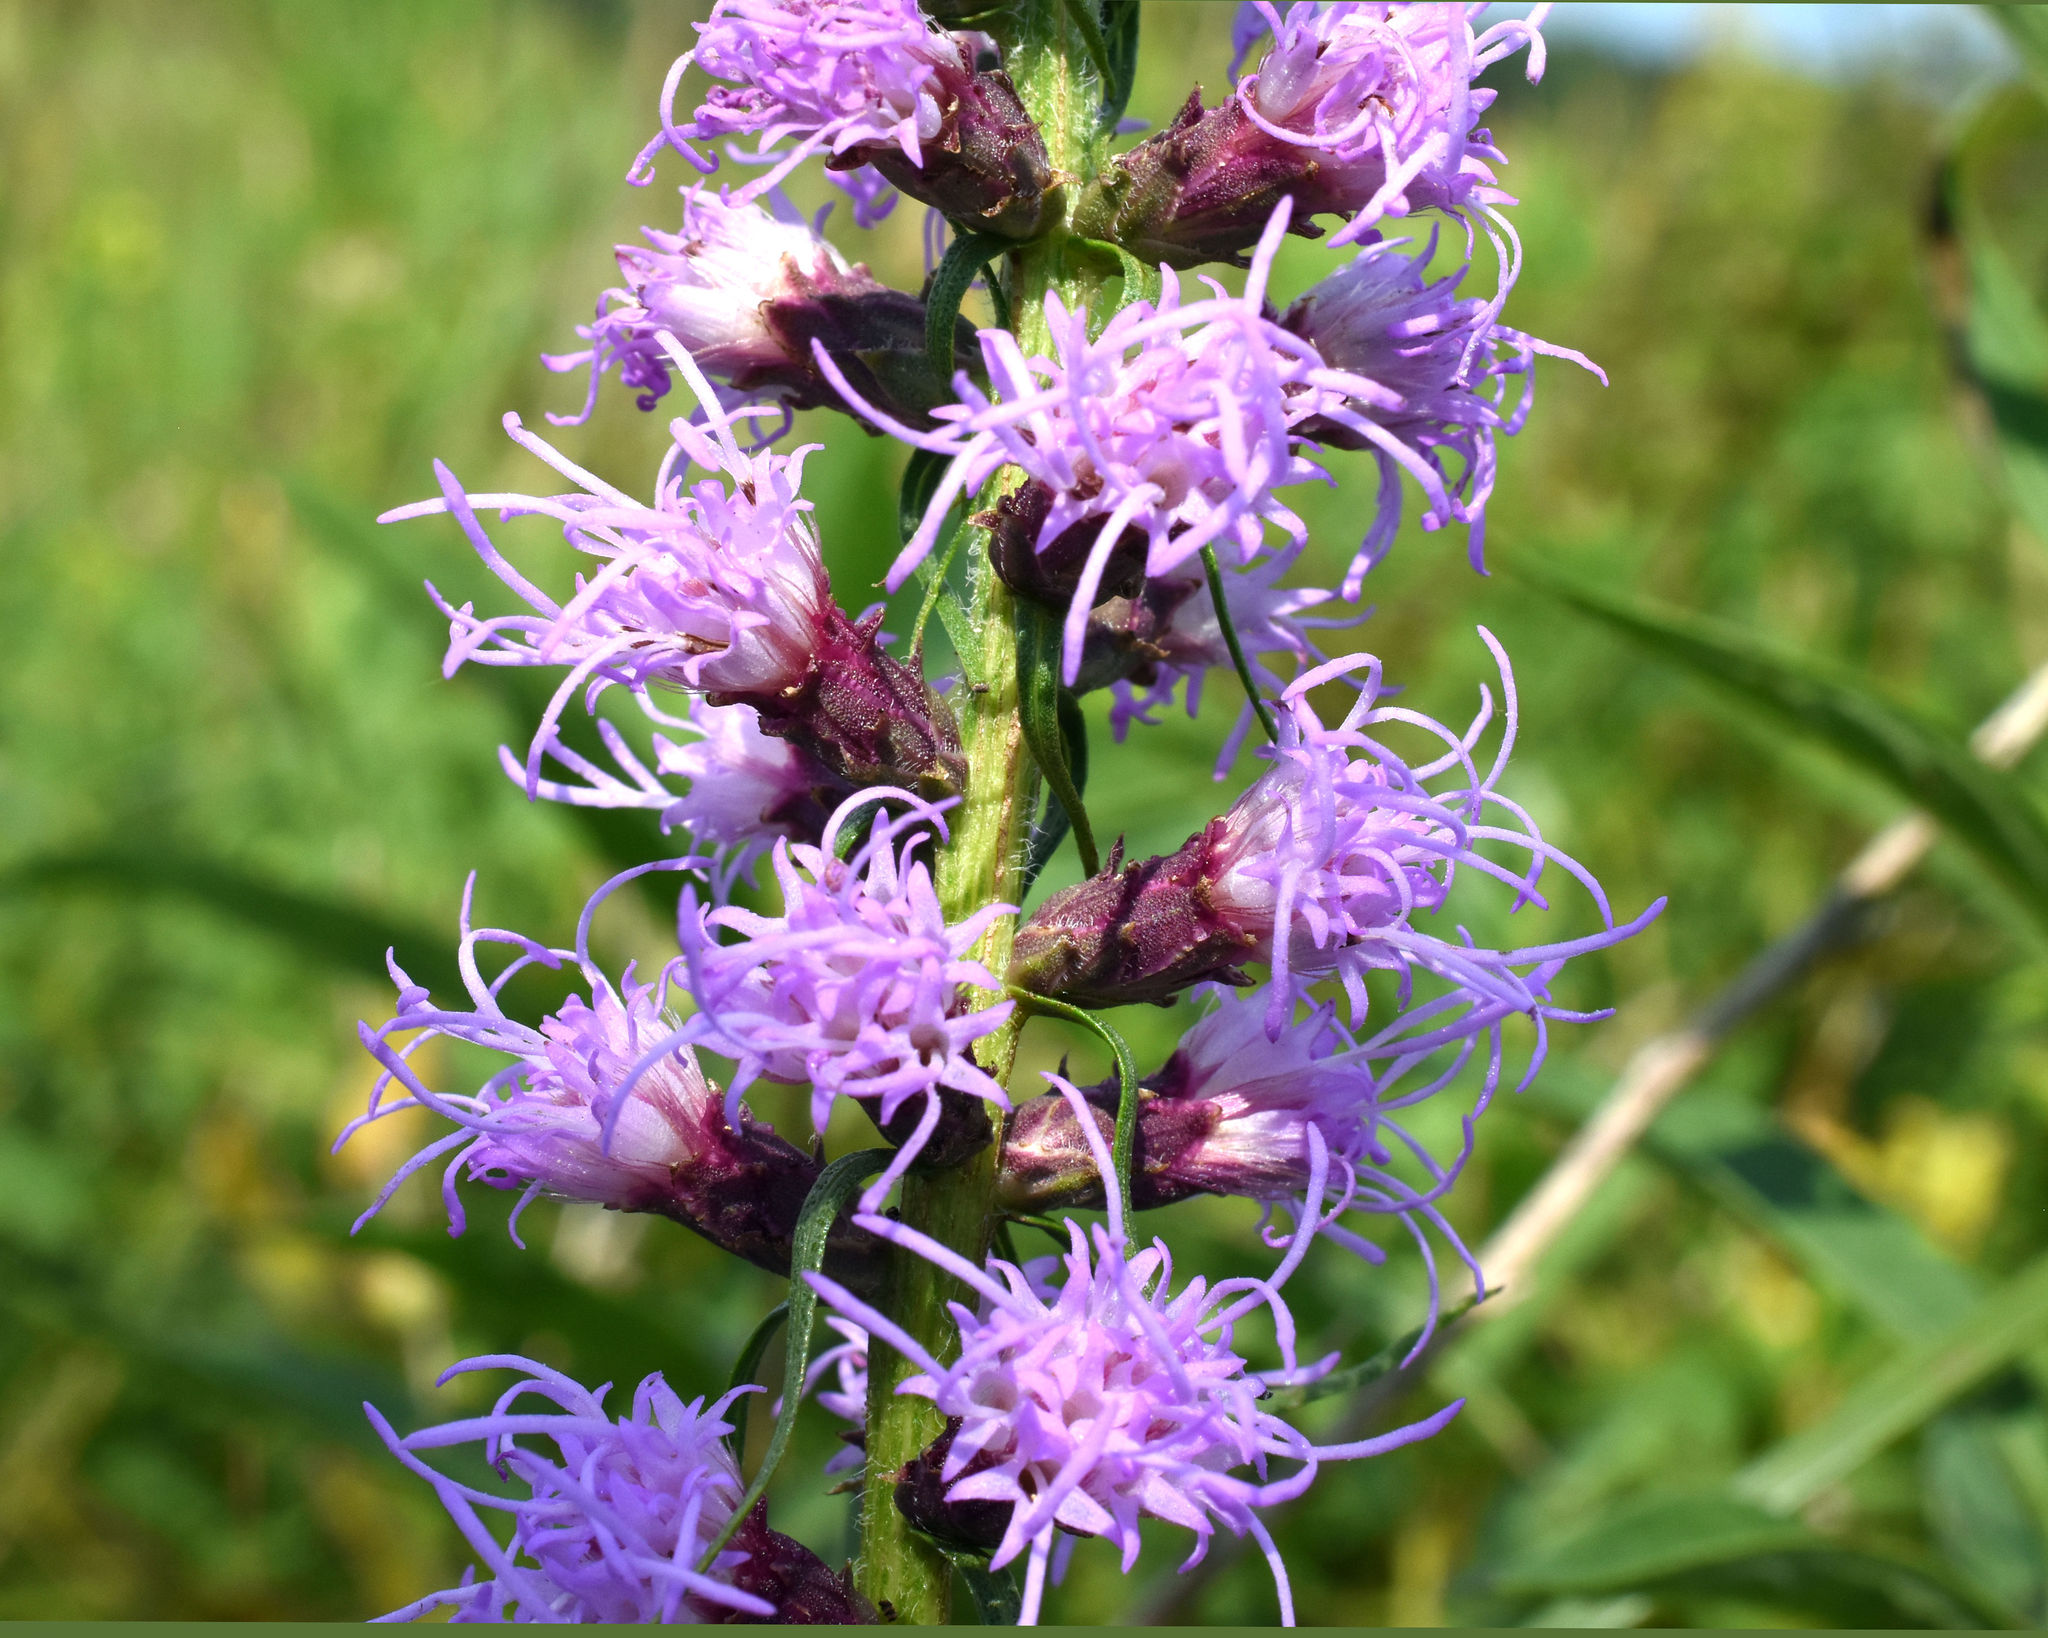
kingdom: Plantae
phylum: Tracheophyta
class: Magnoliopsida
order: Asterales
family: Asteraceae
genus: Liatris
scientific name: Liatris pycnostachya
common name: Cattail gayfeather
